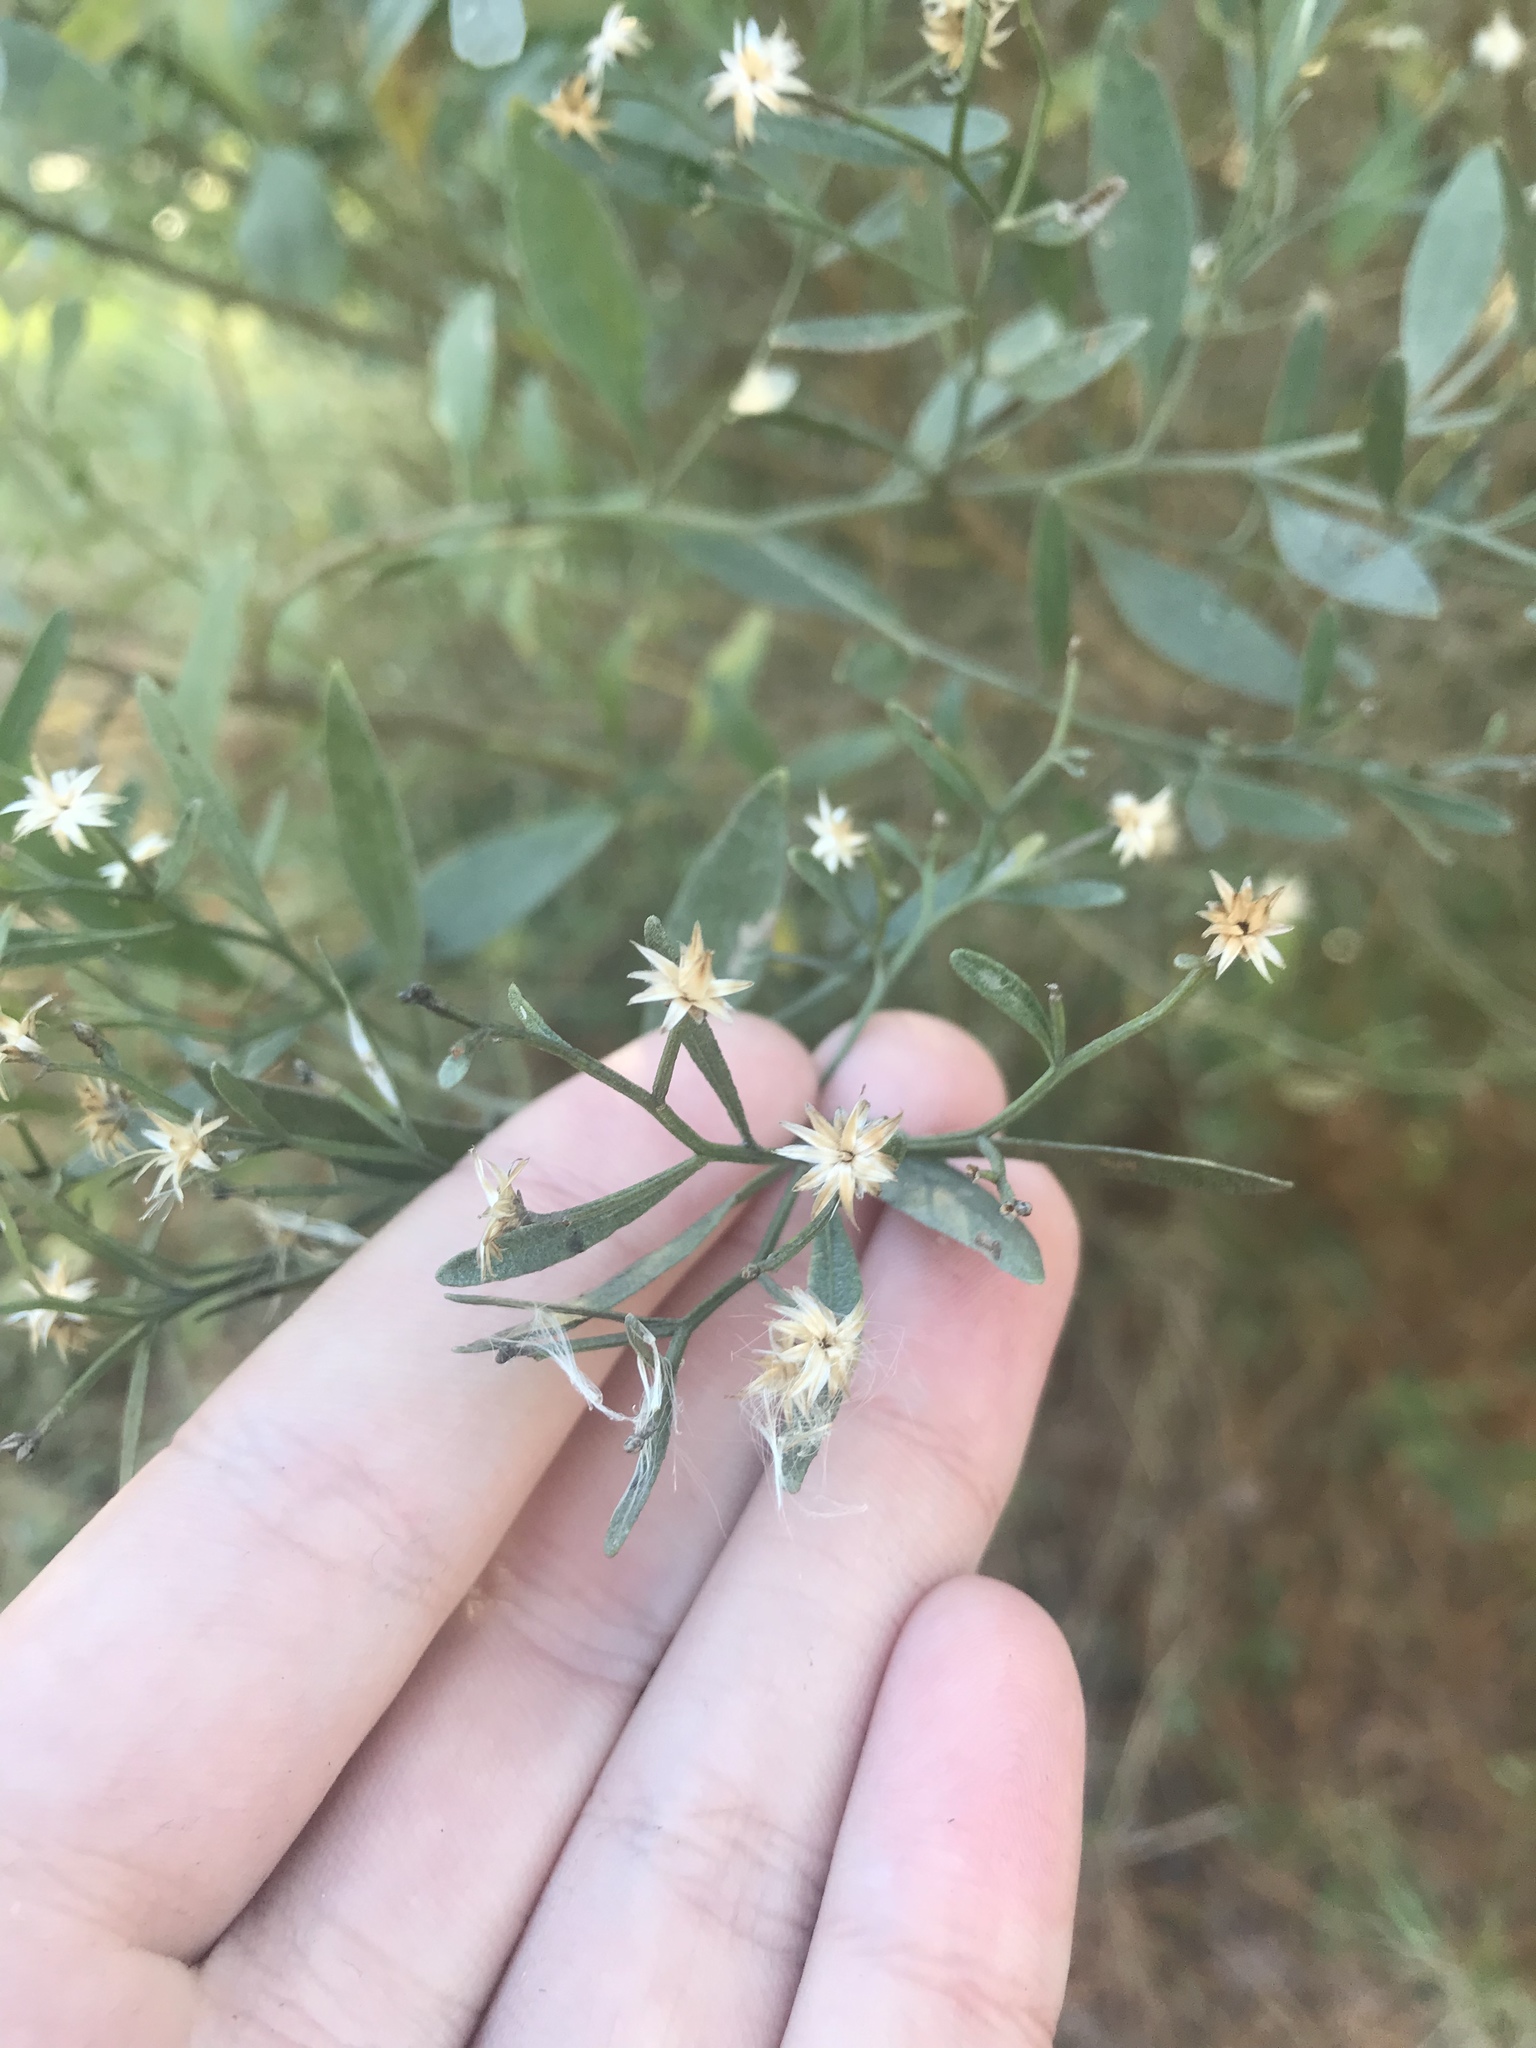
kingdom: Plantae
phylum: Tracheophyta
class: Magnoliopsida
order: Asterales
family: Asteraceae
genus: Baccharis
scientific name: Baccharis halimifolia
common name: Eastern baccharis
